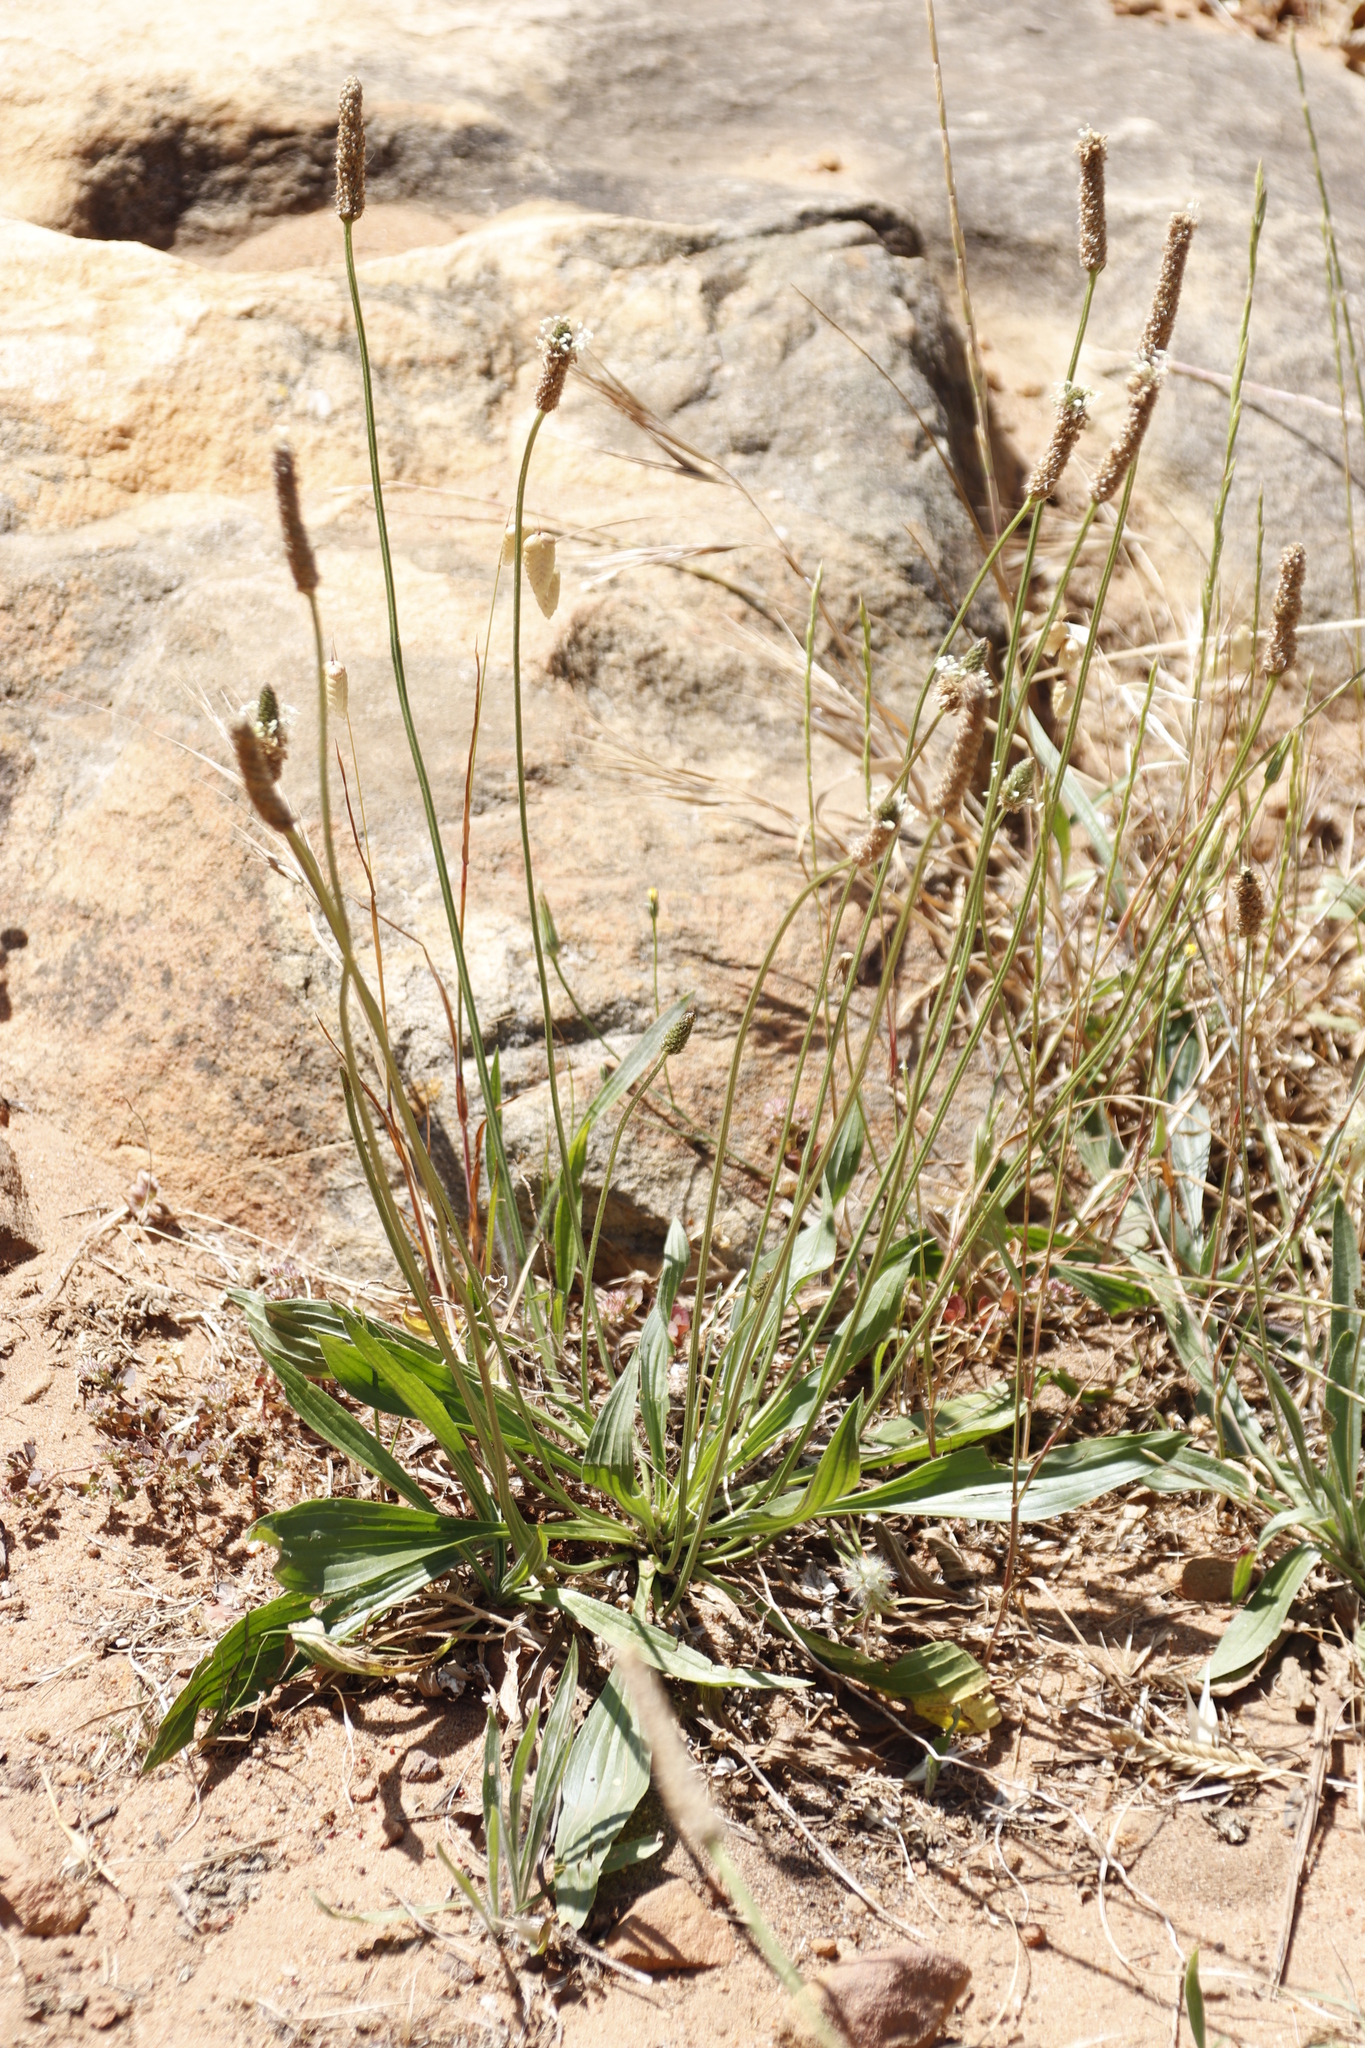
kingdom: Plantae
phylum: Tracheophyta
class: Magnoliopsida
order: Lamiales
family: Plantaginaceae
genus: Plantago
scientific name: Plantago lanceolata
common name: Ribwort plantain
